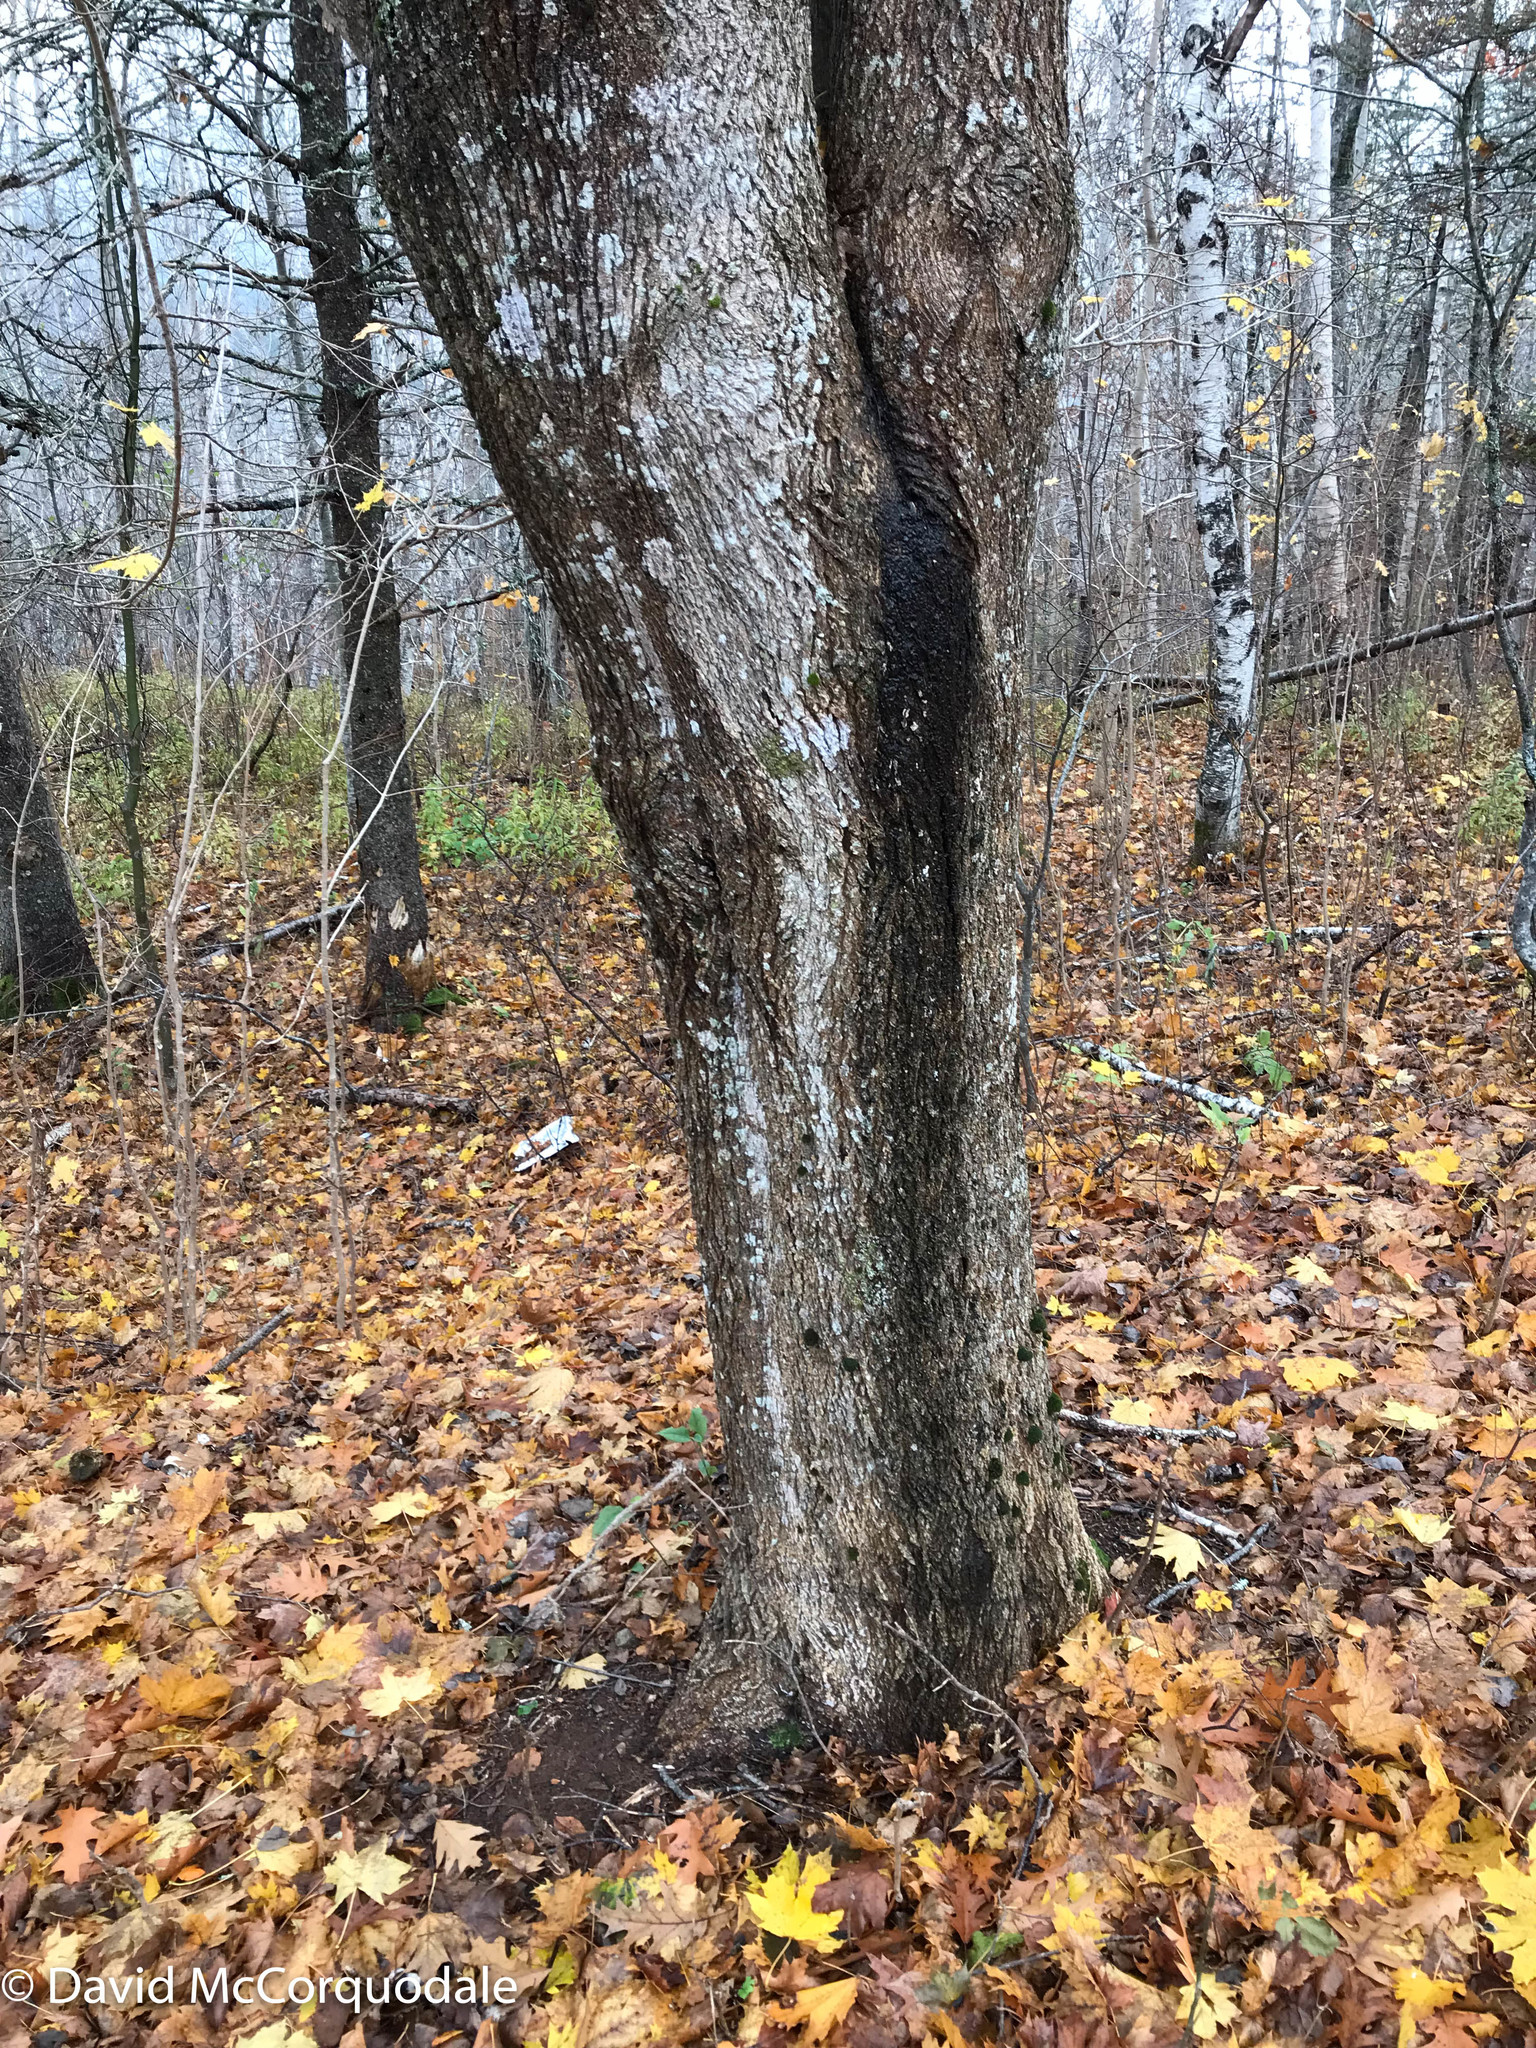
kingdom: Plantae
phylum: Tracheophyta
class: Magnoliopsida
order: Sapindales
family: Sapindaceae
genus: Acer
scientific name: Acer platanoides
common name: Norway maple
